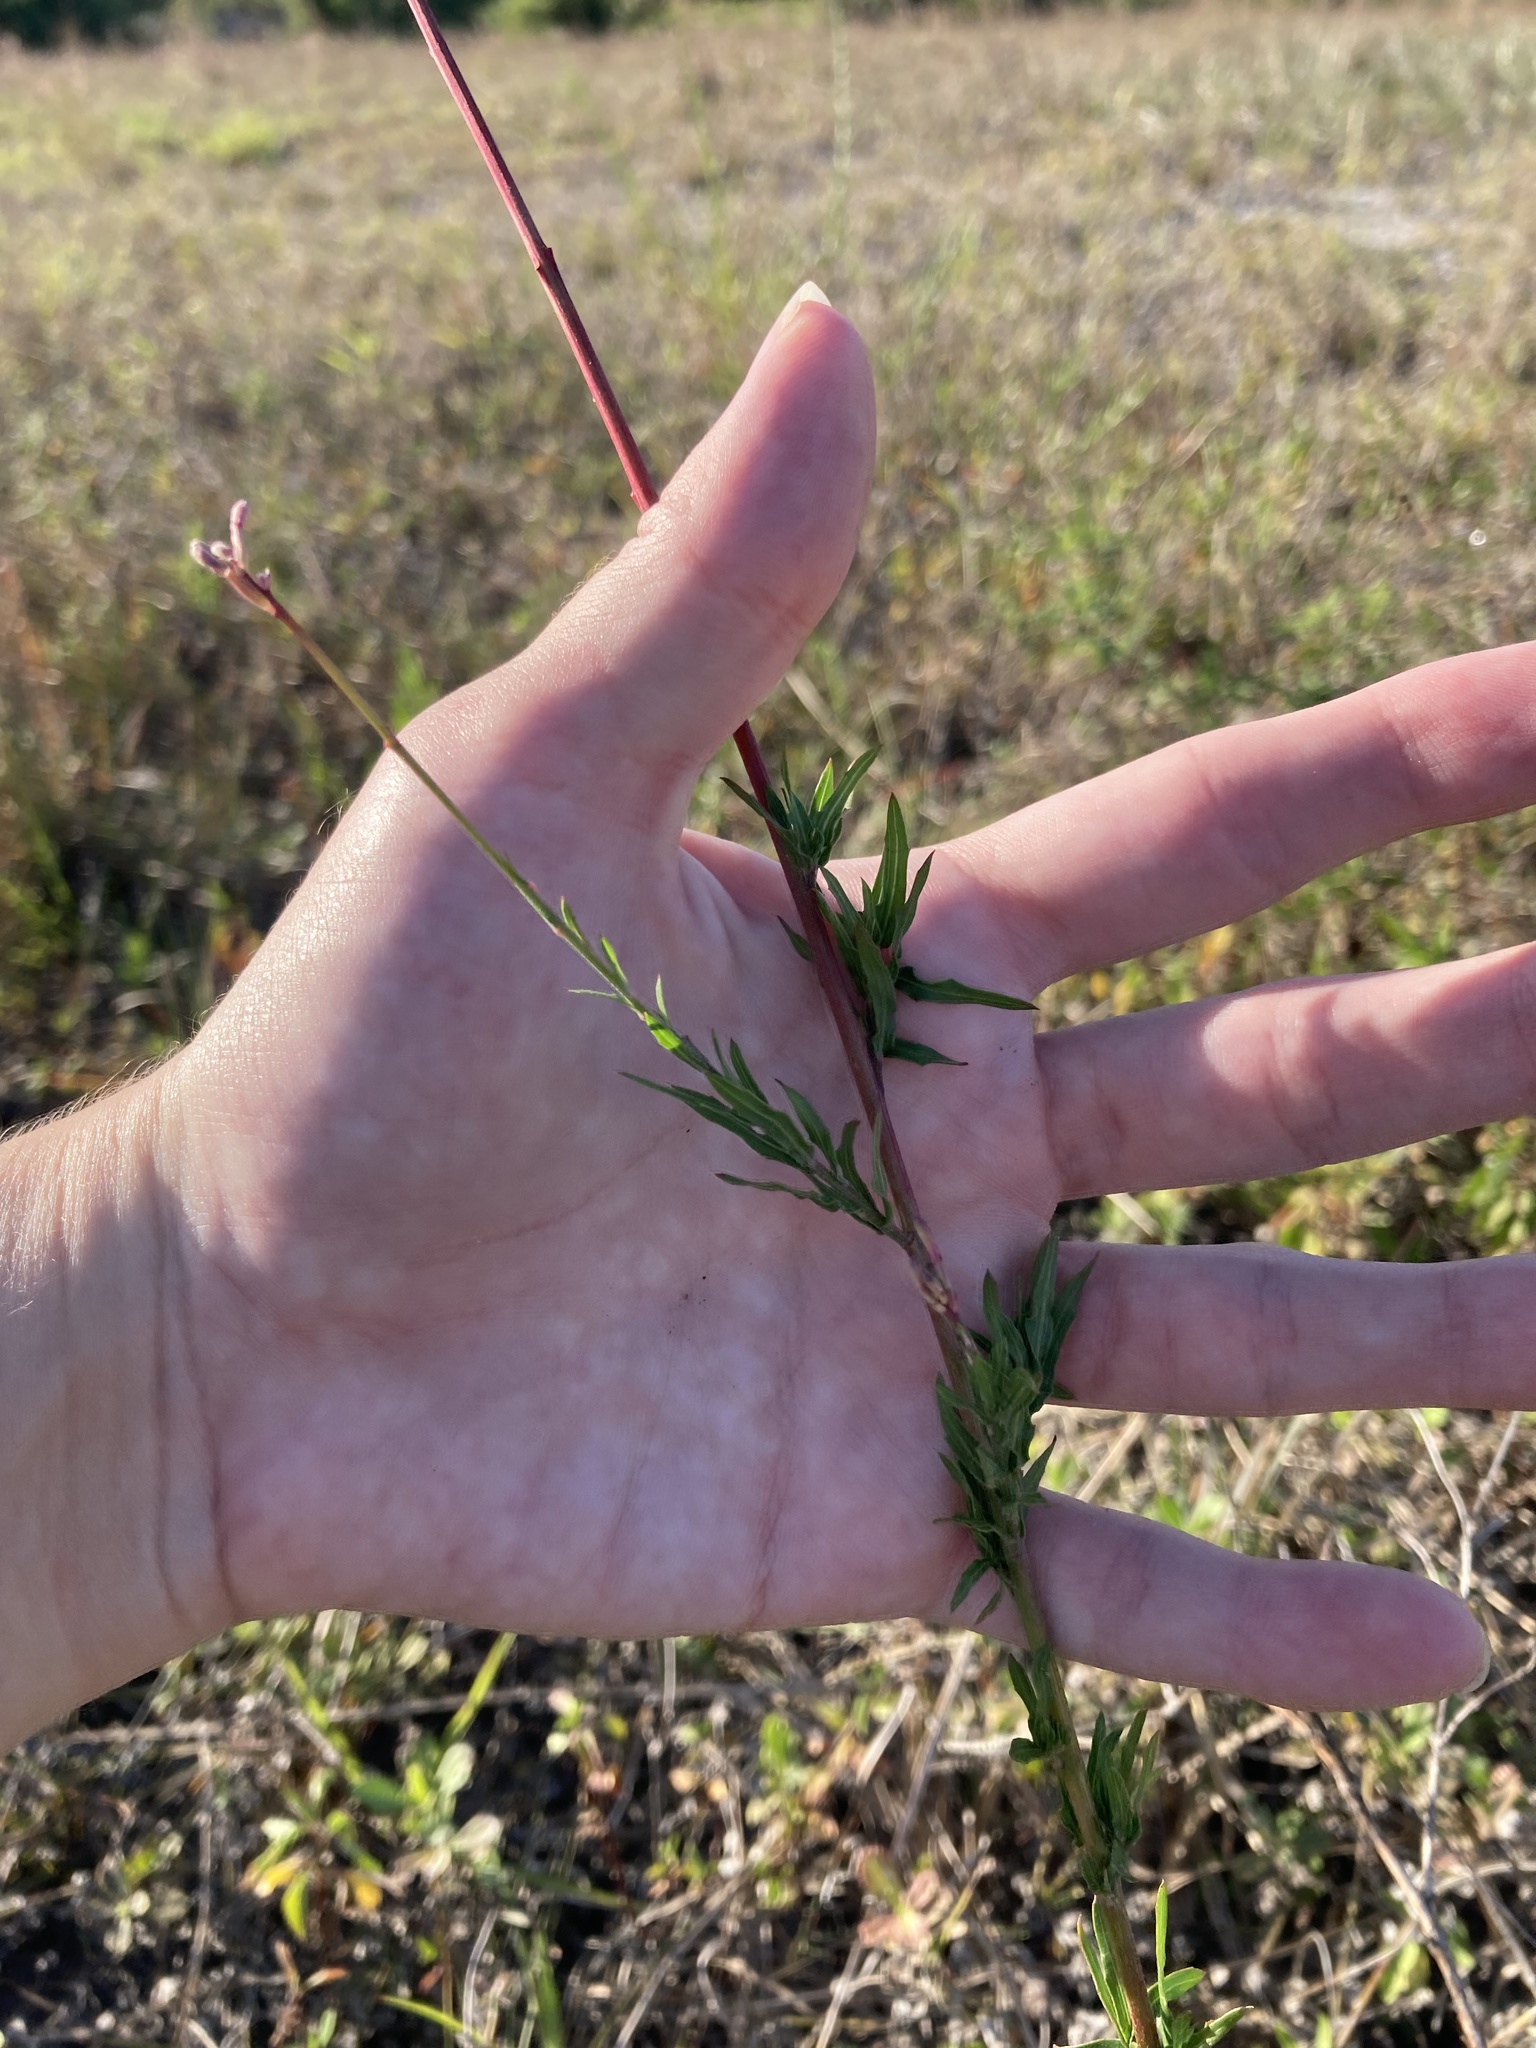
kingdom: Plantae
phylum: Tracheophyta
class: Magnoliopsida
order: Myrtales
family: Onagraceae
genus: Oenothera
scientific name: Oenothera simulans
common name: Southern beeblossom
